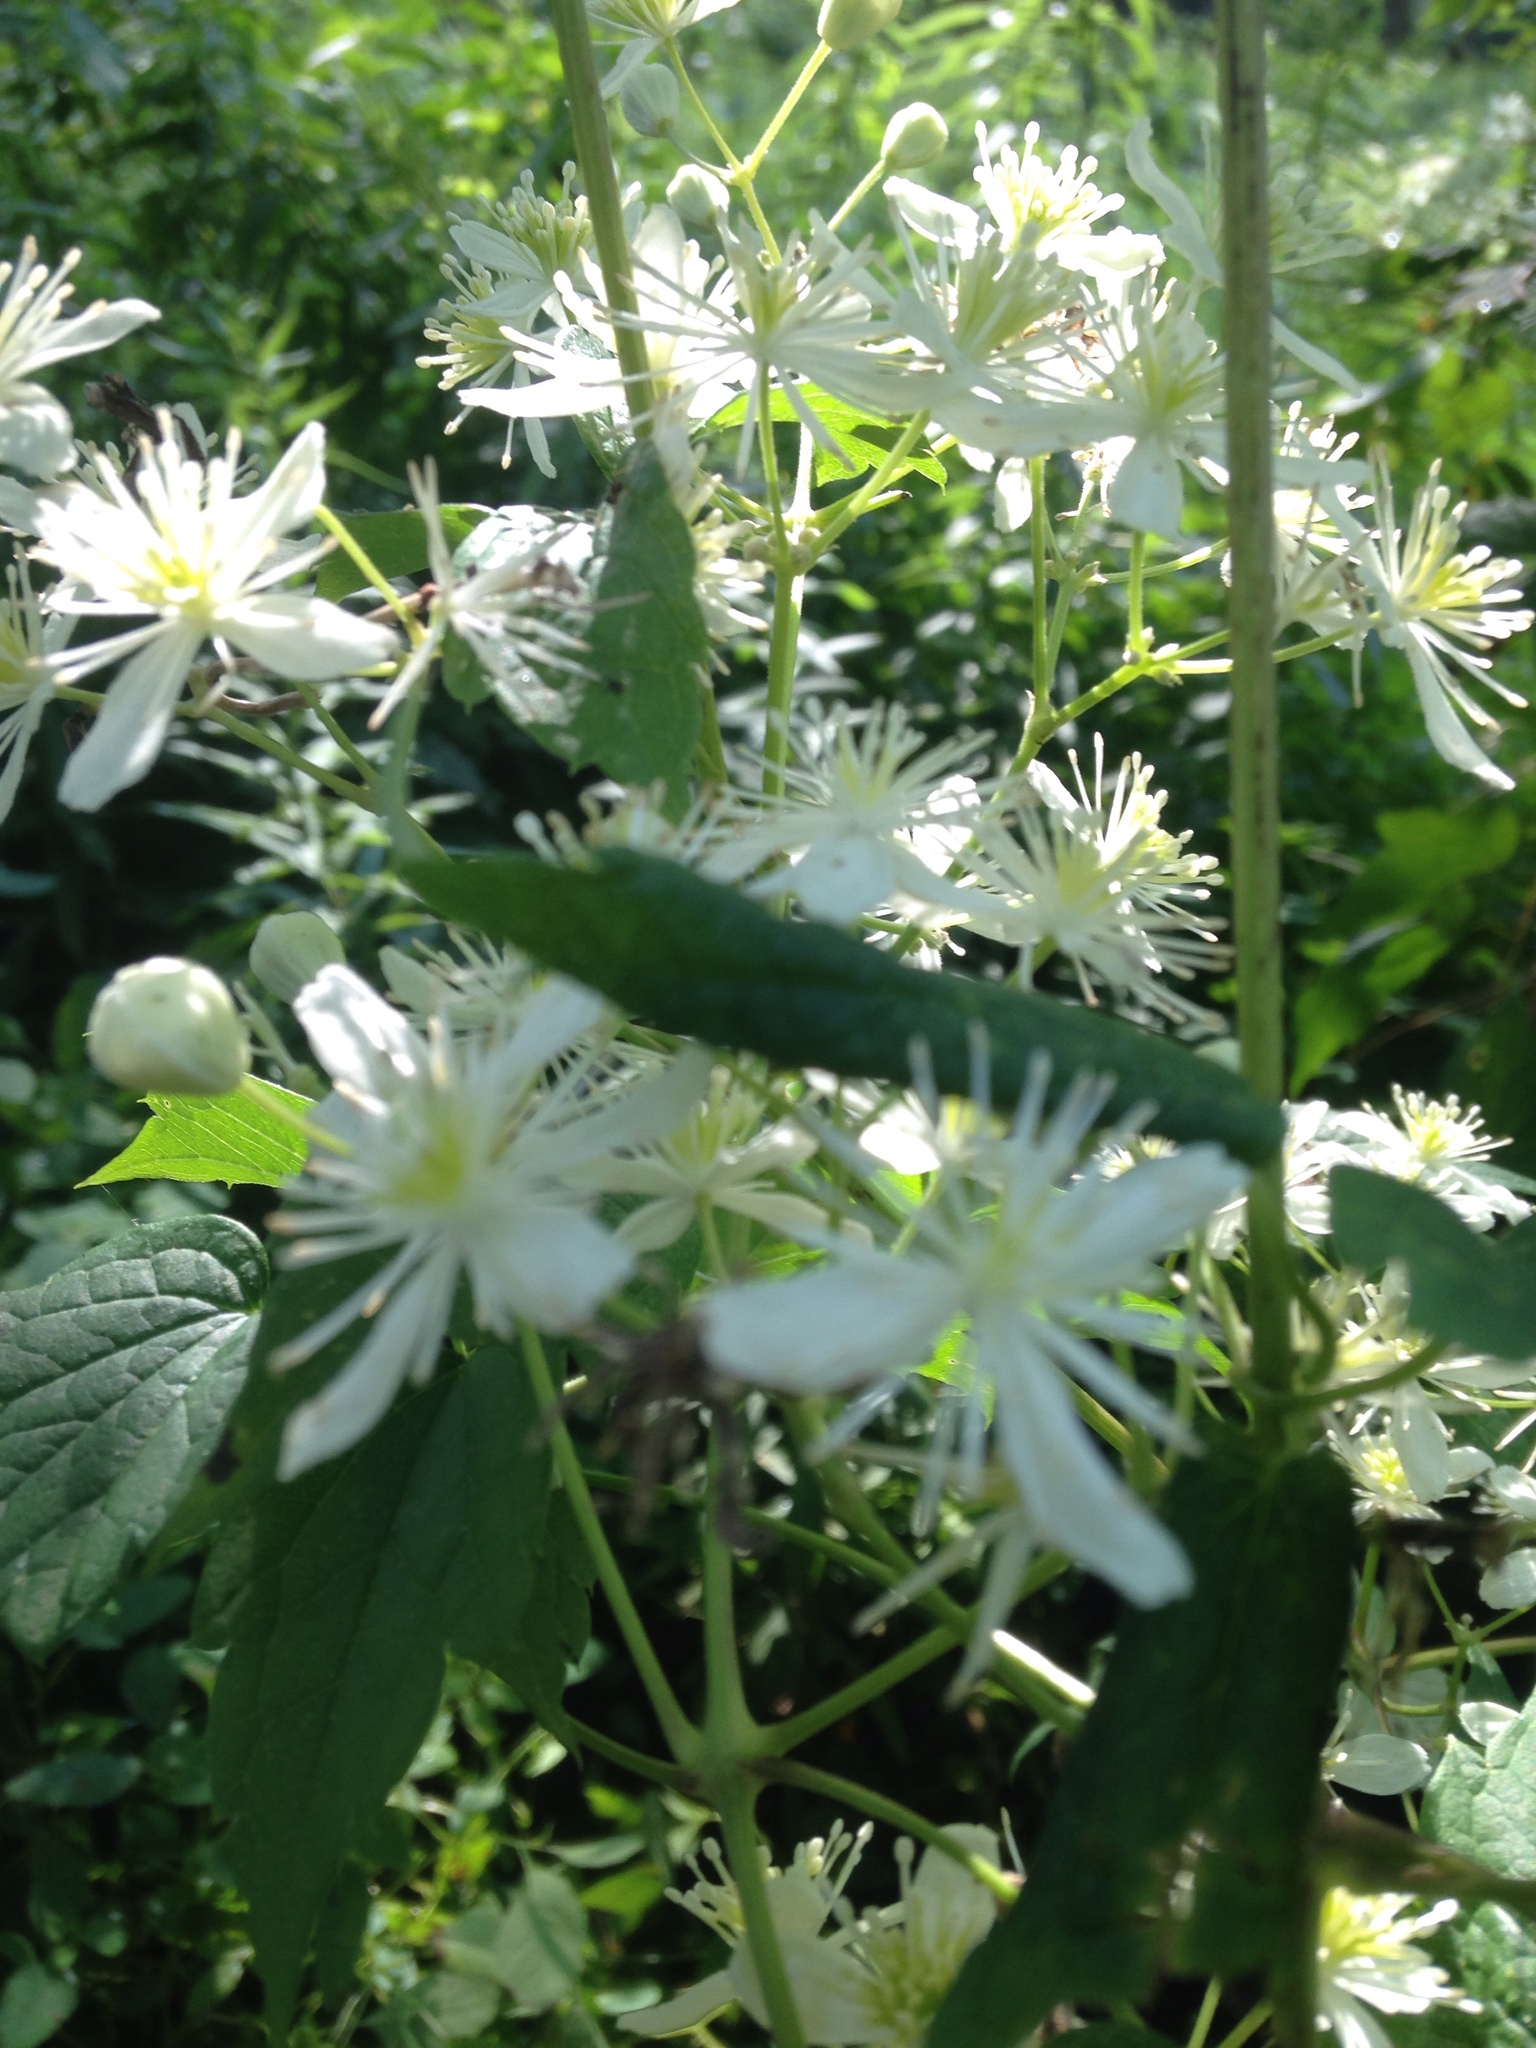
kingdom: Plantae
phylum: Tracheophyta
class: Magnoliopsida
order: Ranunculales
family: Ranunculaceae
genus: Clematis
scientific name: Clematis virginiana
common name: Virgin's-bower
